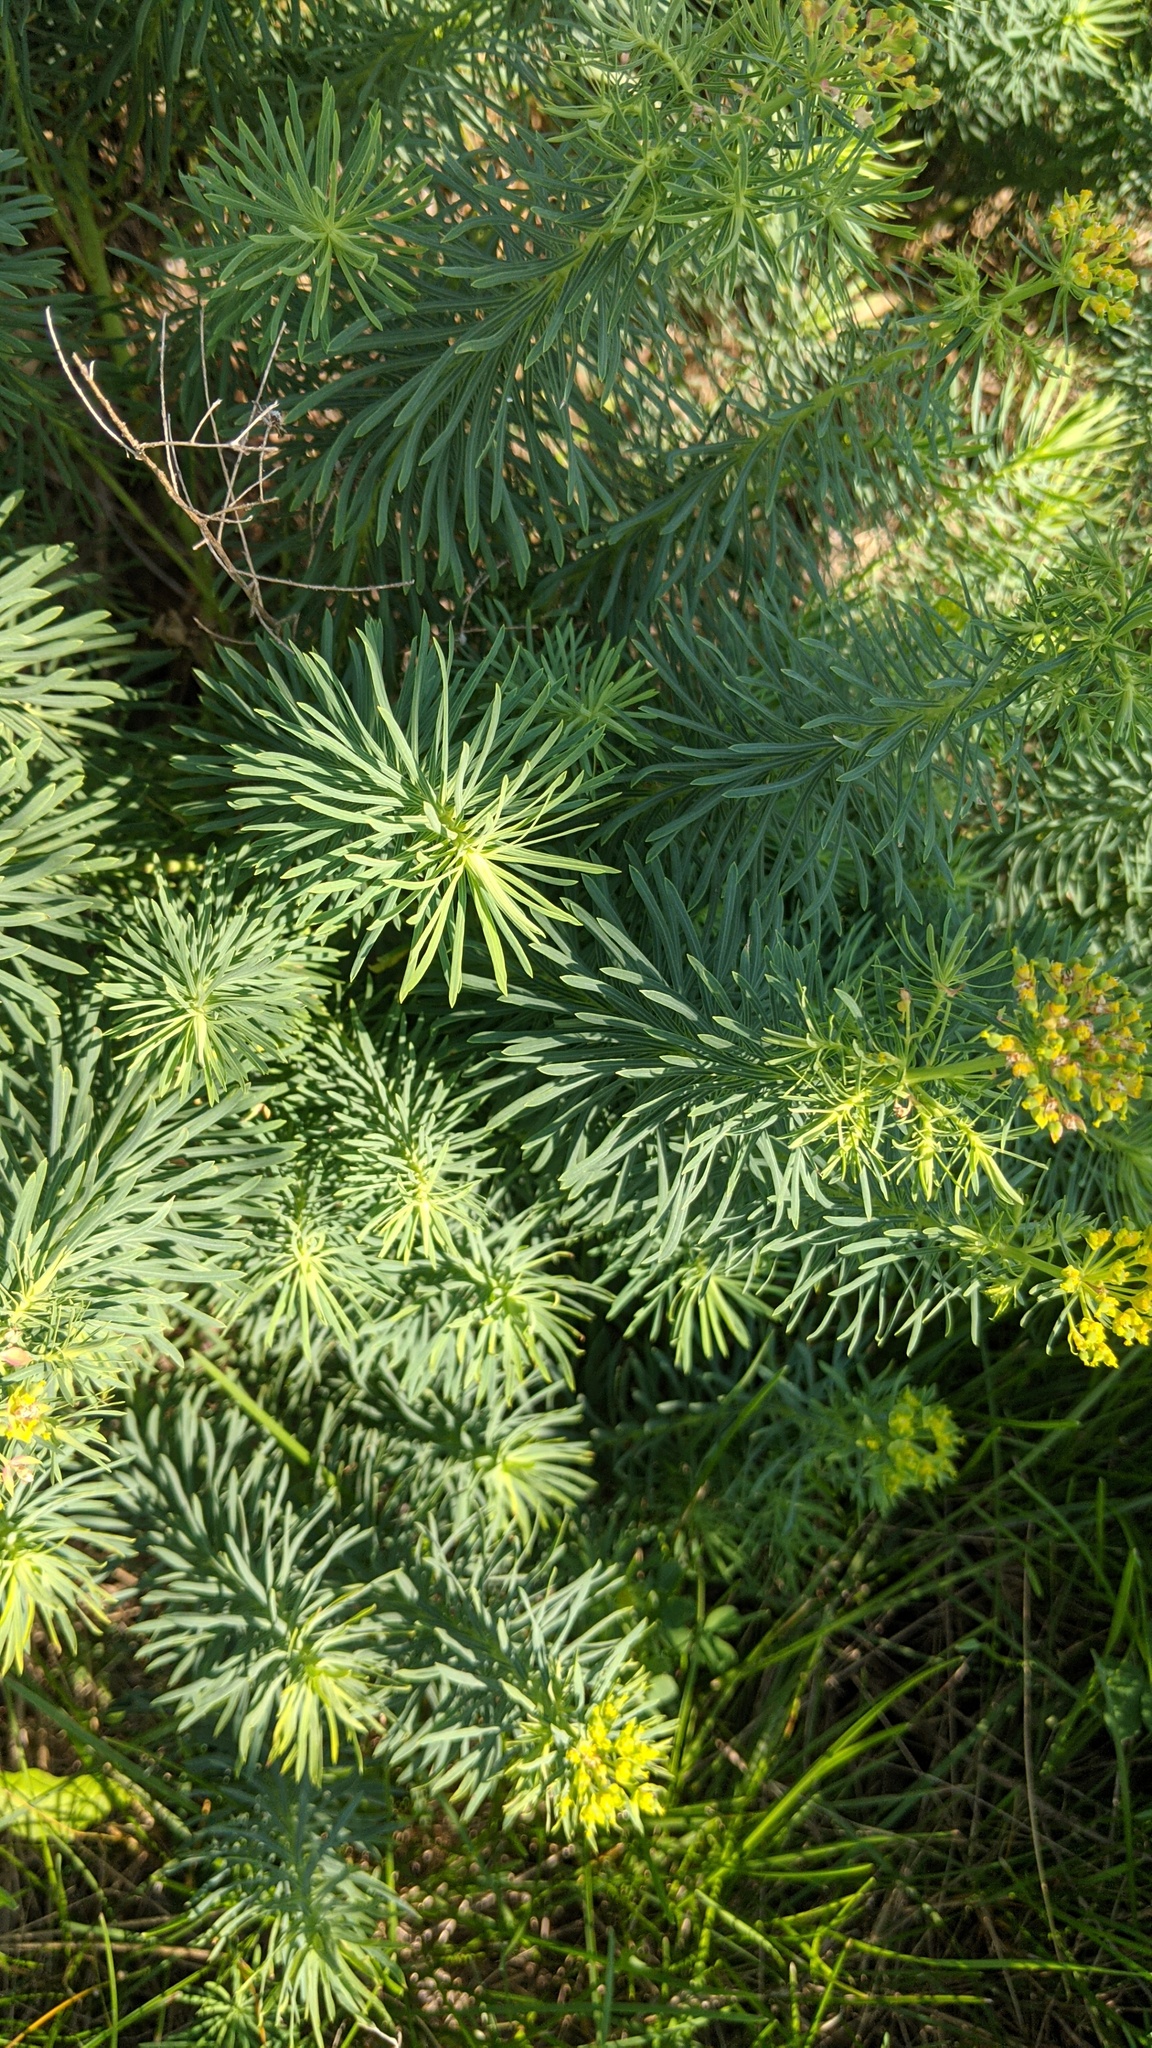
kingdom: Plantae
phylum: Tracheophyta
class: Magnoliopsida
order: Malpighiales
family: Euphorbiaceae
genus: Euphorbia
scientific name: Euphorbia cyparissias
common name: Cypress spurge
